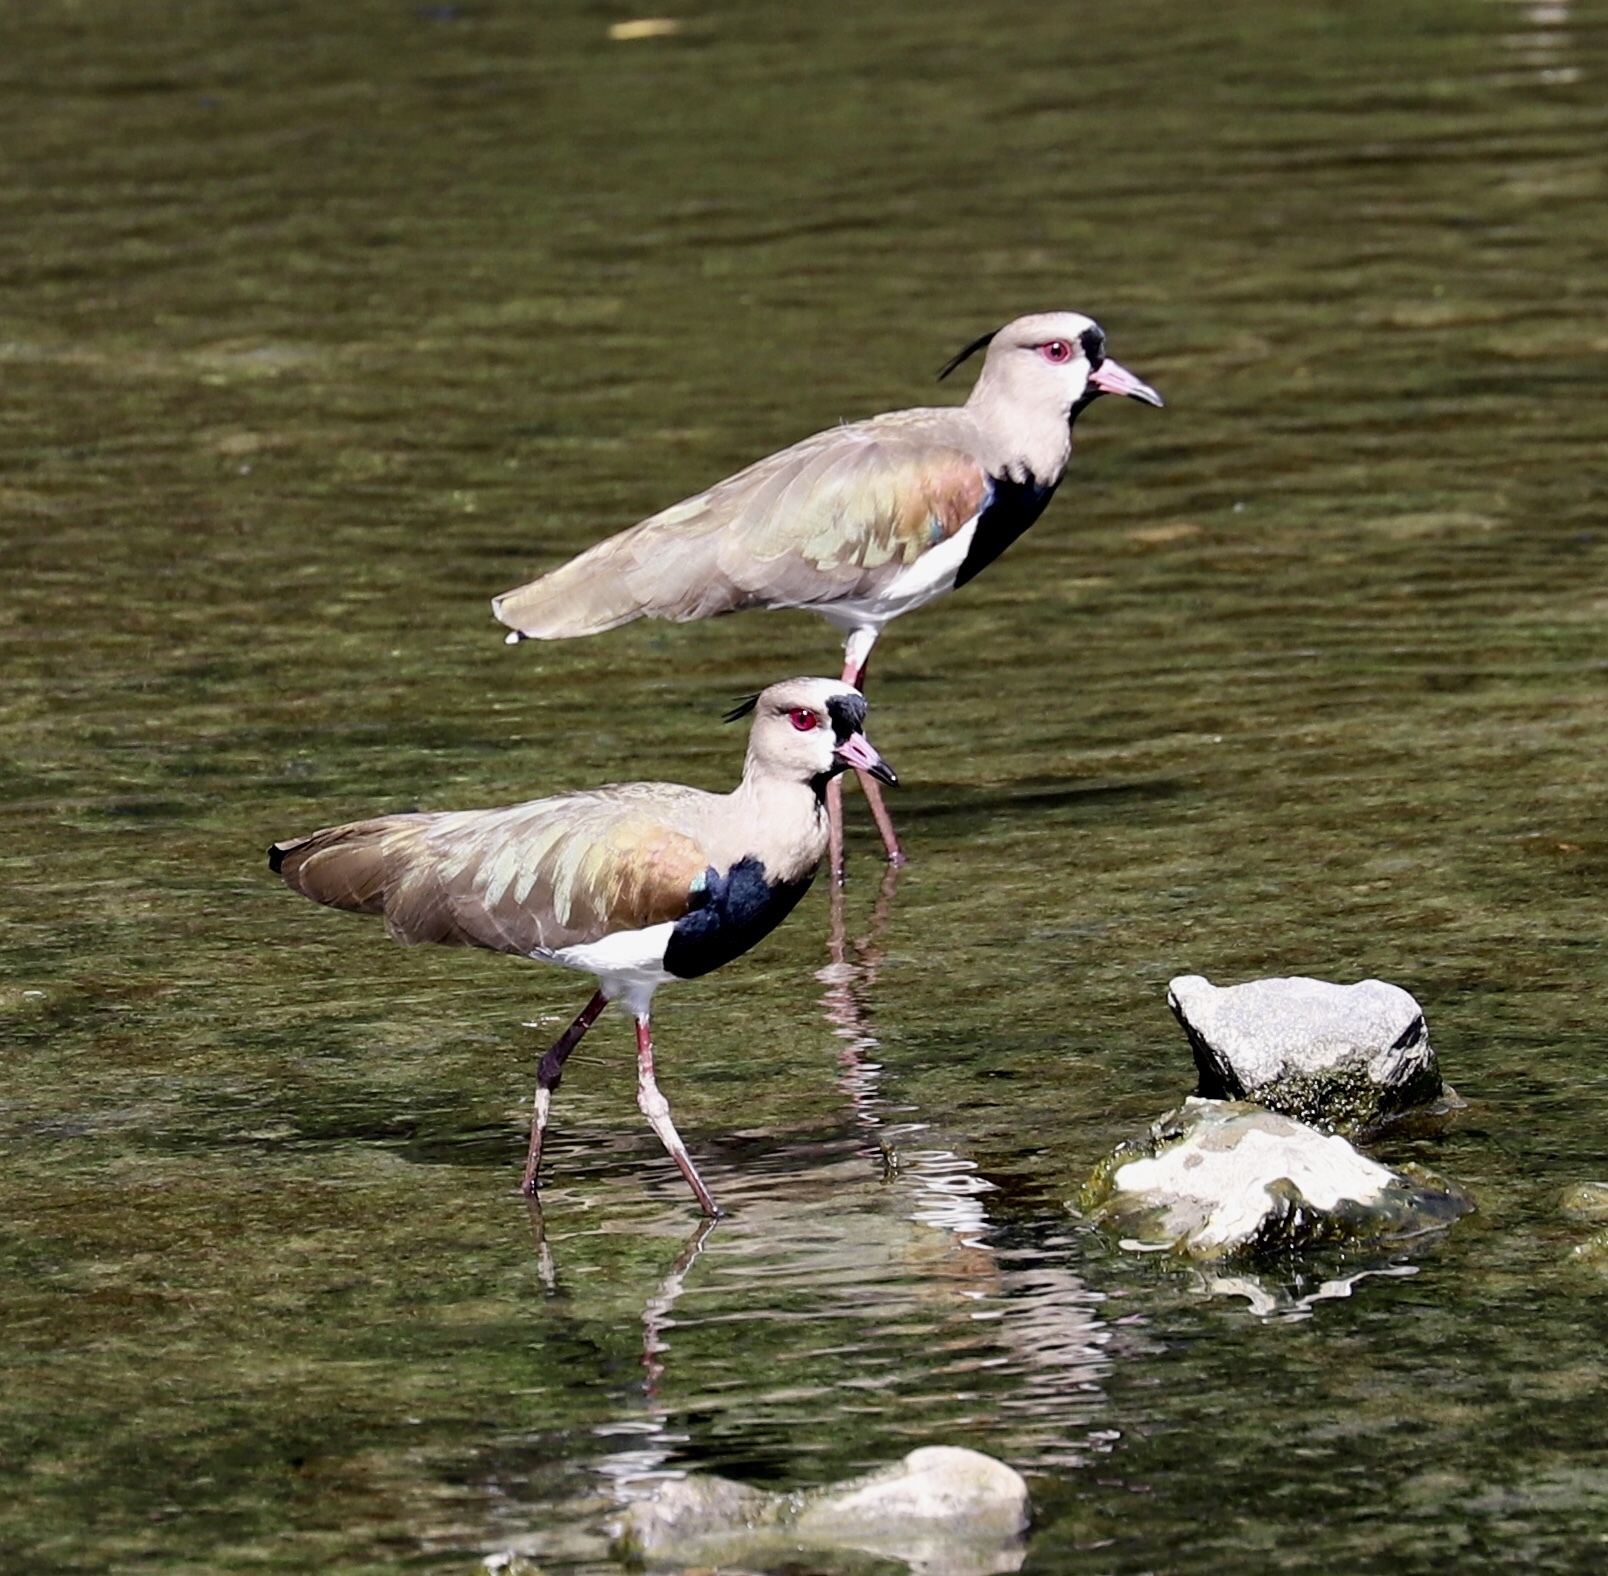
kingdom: Animalia
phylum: Chordata
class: Aves
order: Charadriiformes
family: Charadriidae
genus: Vanellus
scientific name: Vanellus chilensis
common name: Southern lapwing
